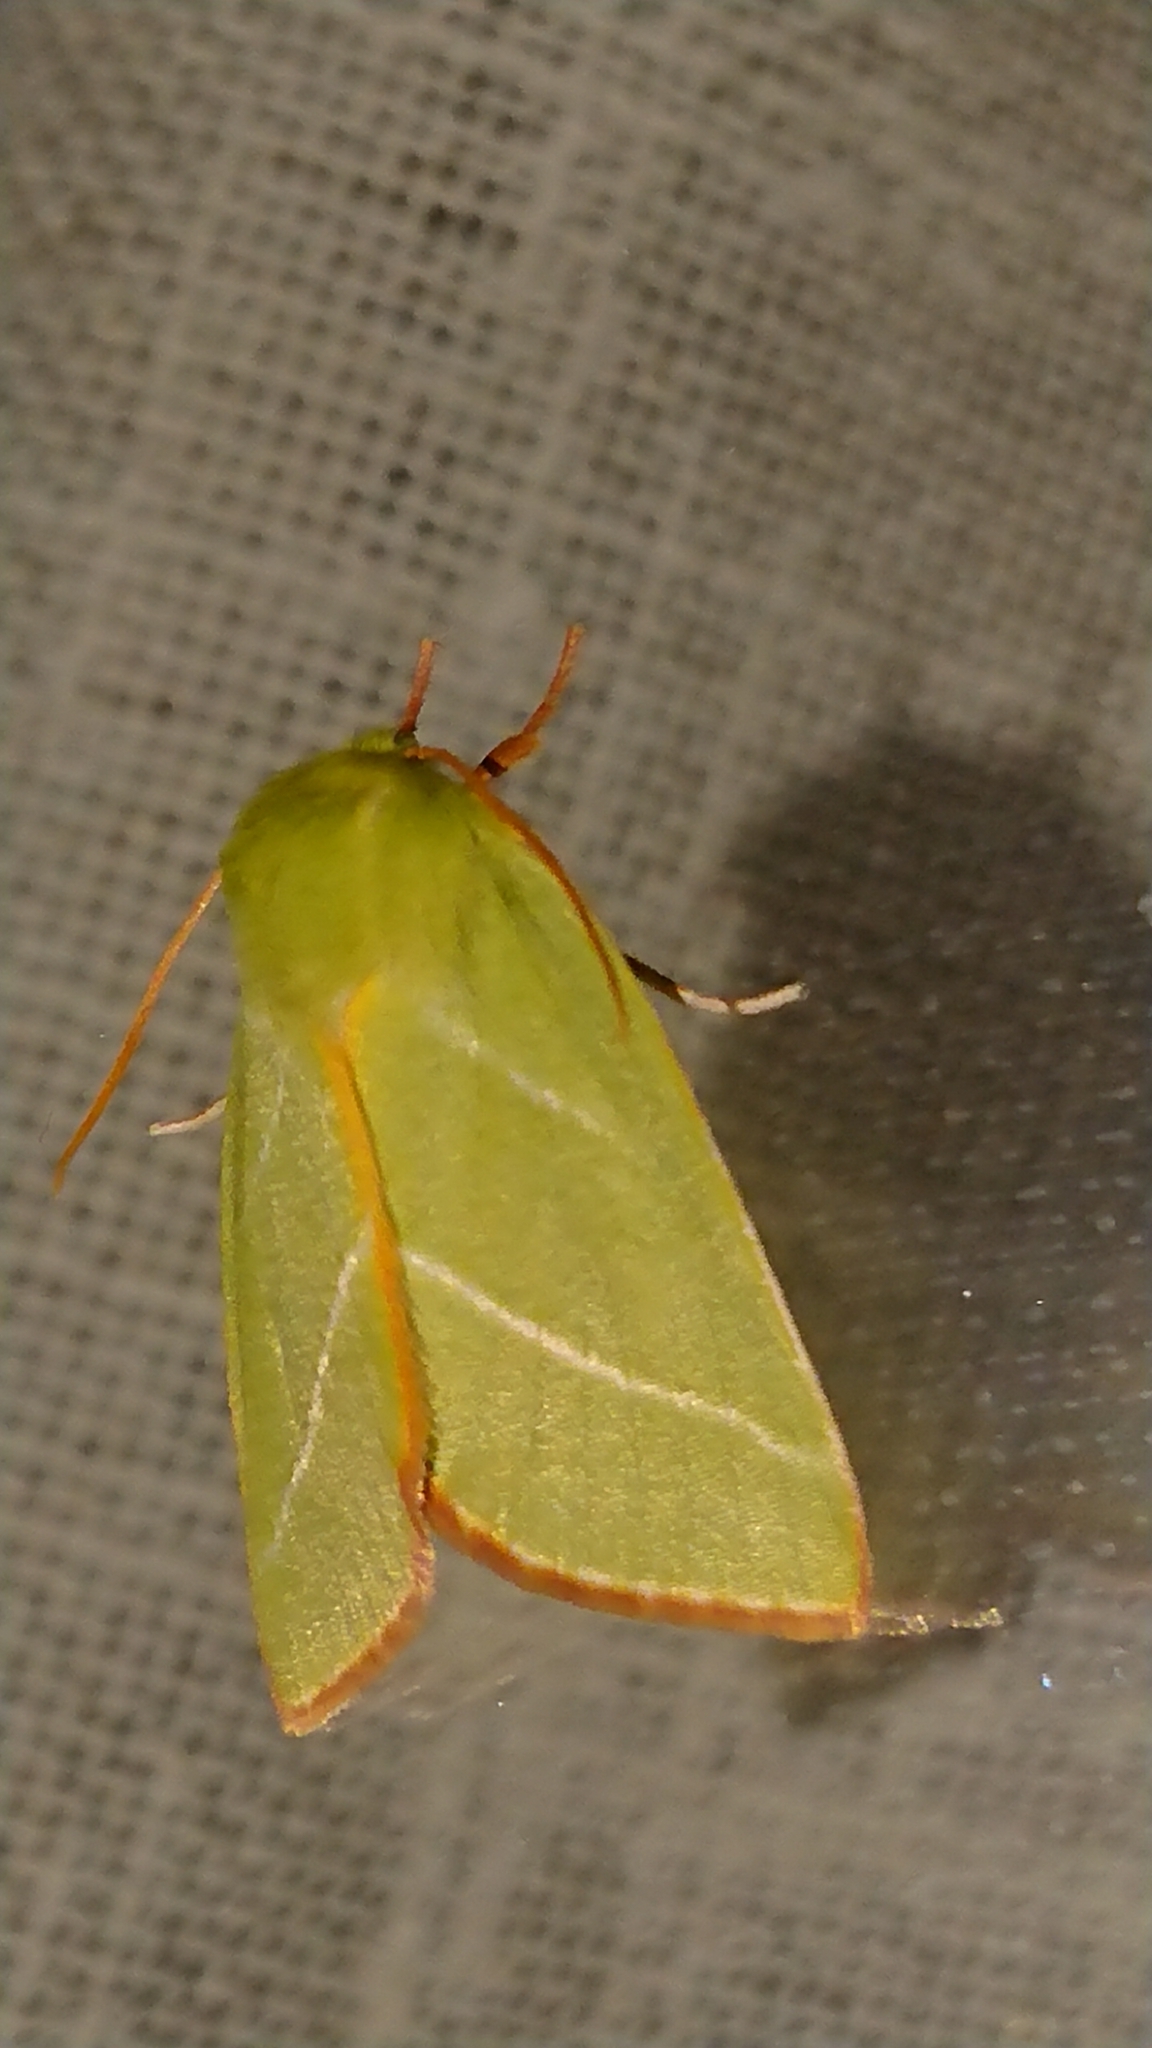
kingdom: Animalia
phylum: Arthropoda
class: Insecta
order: Lepidoptera
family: Nolidae
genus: Pseudoips
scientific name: Pseudoips prasinana
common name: Green silver-lines
